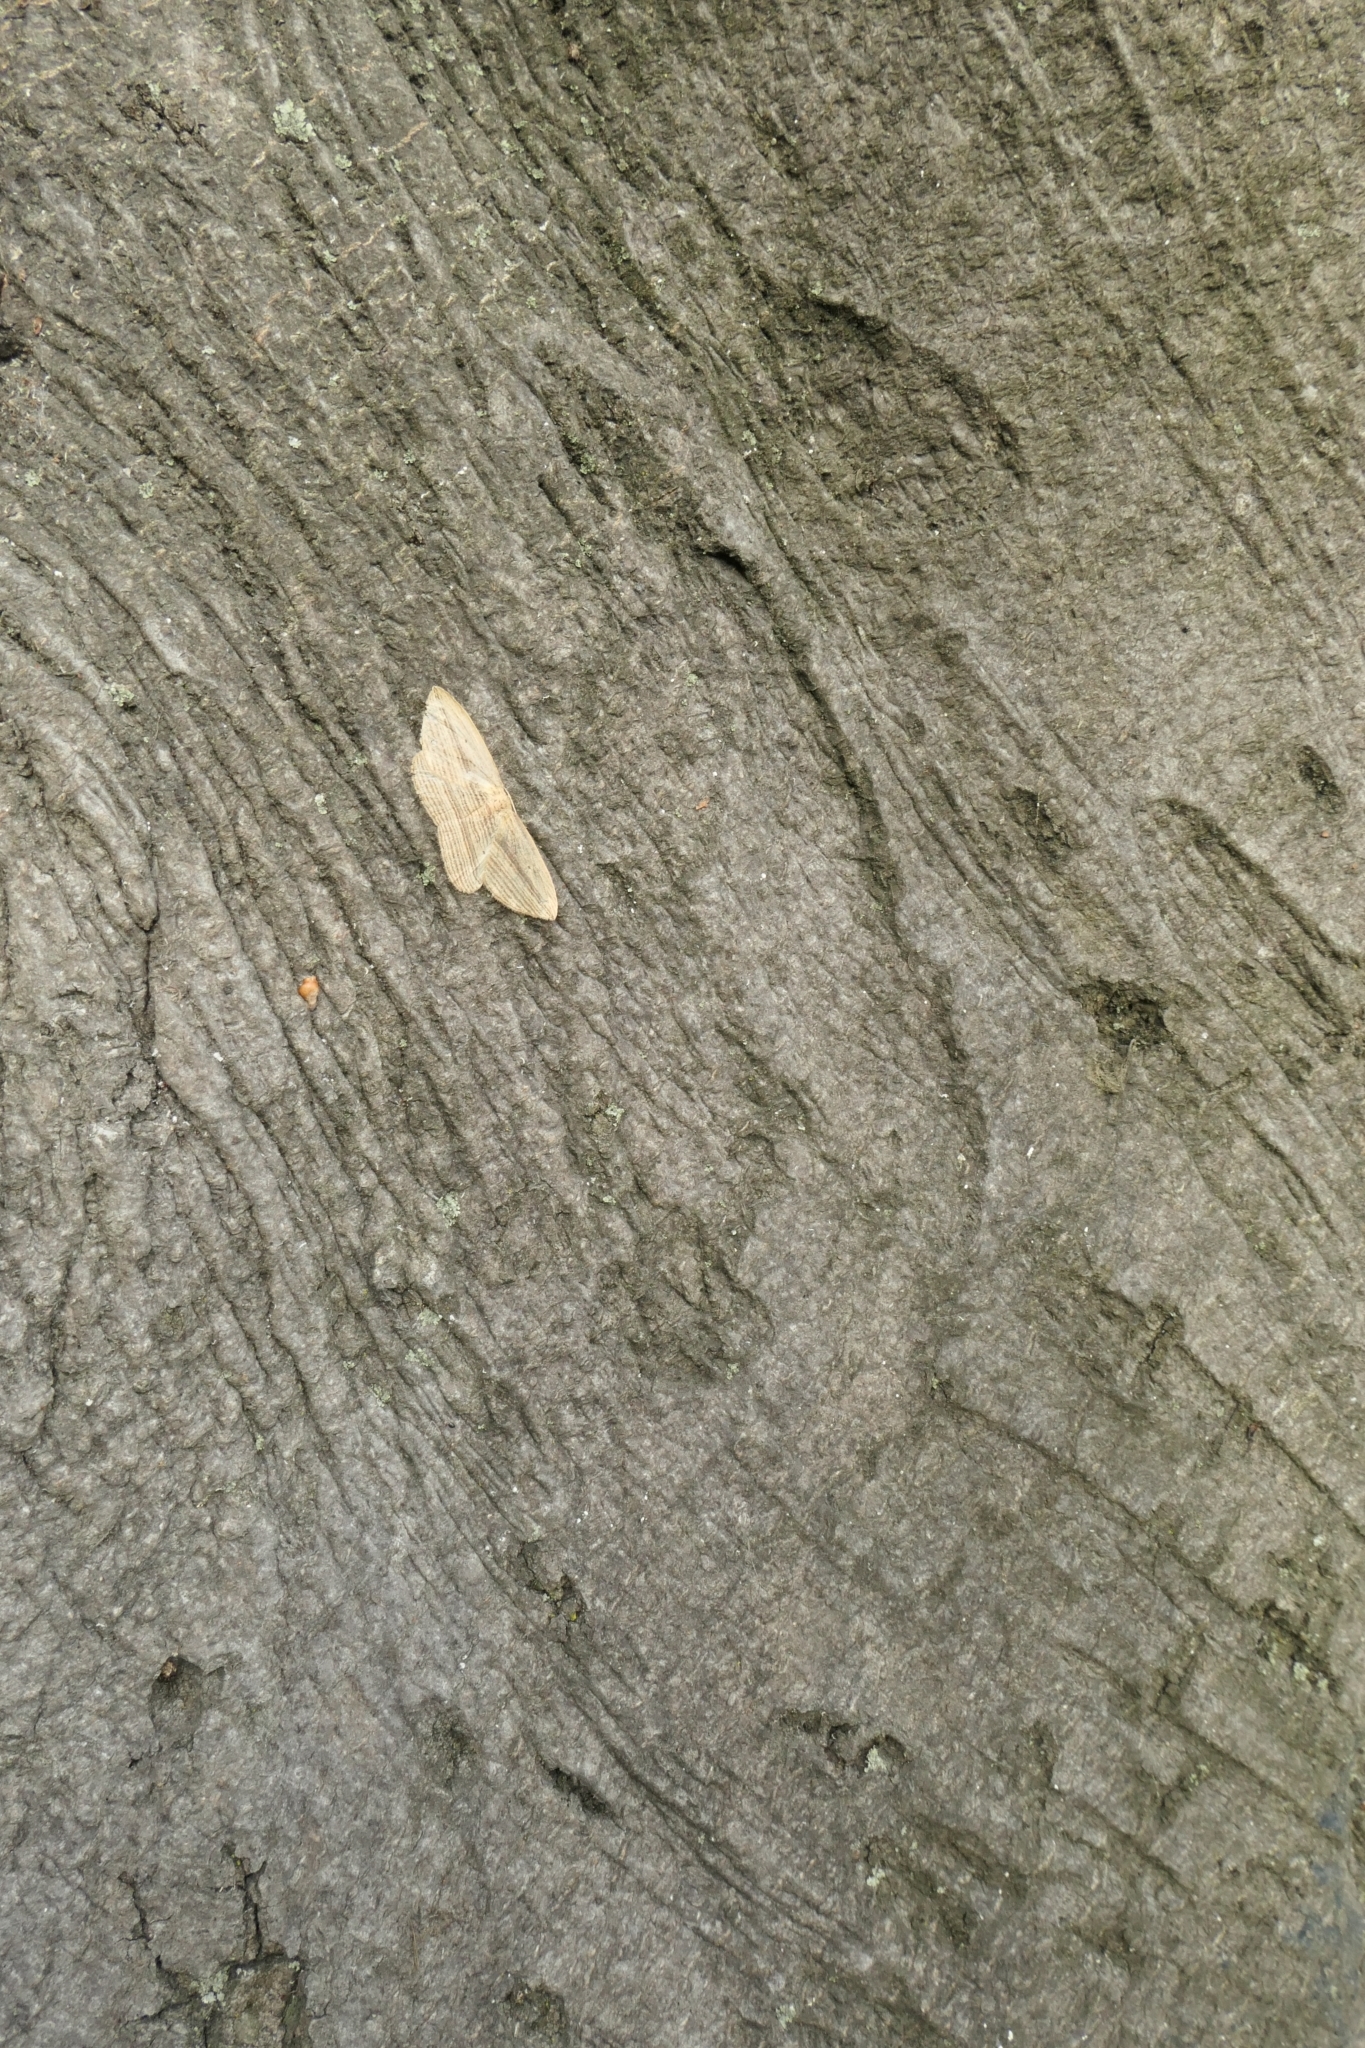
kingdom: Animalia
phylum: Arthropoda
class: Insecta
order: Lepidoptera
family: Geometridae
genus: Epiphryne
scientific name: Epiphryne verriculata
